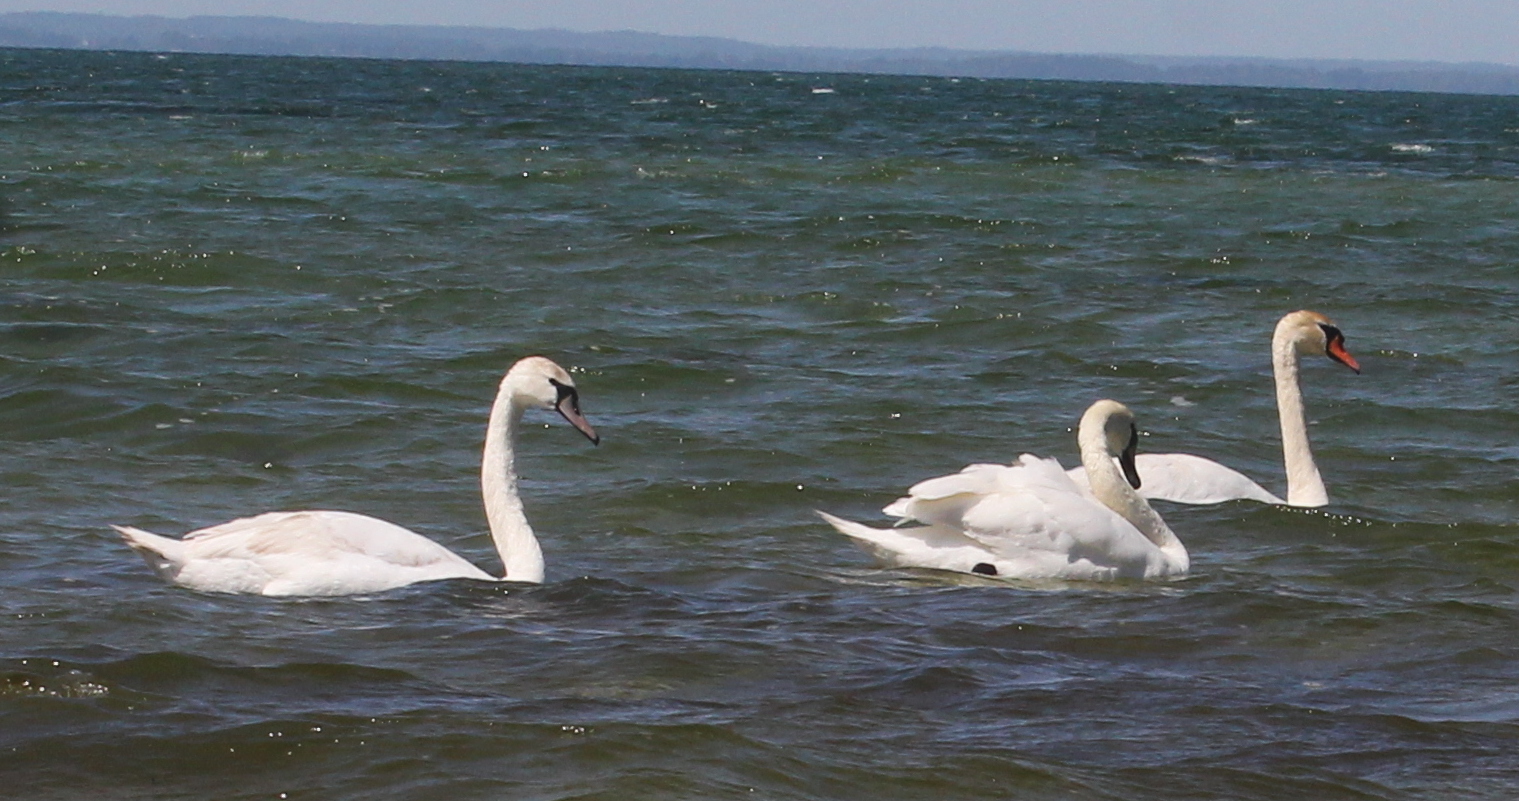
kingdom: Animalia
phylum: Chordata
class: Aves
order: Anseriformes
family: Anatidae
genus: Cygnus
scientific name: Cygnus olor
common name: Mute swan
